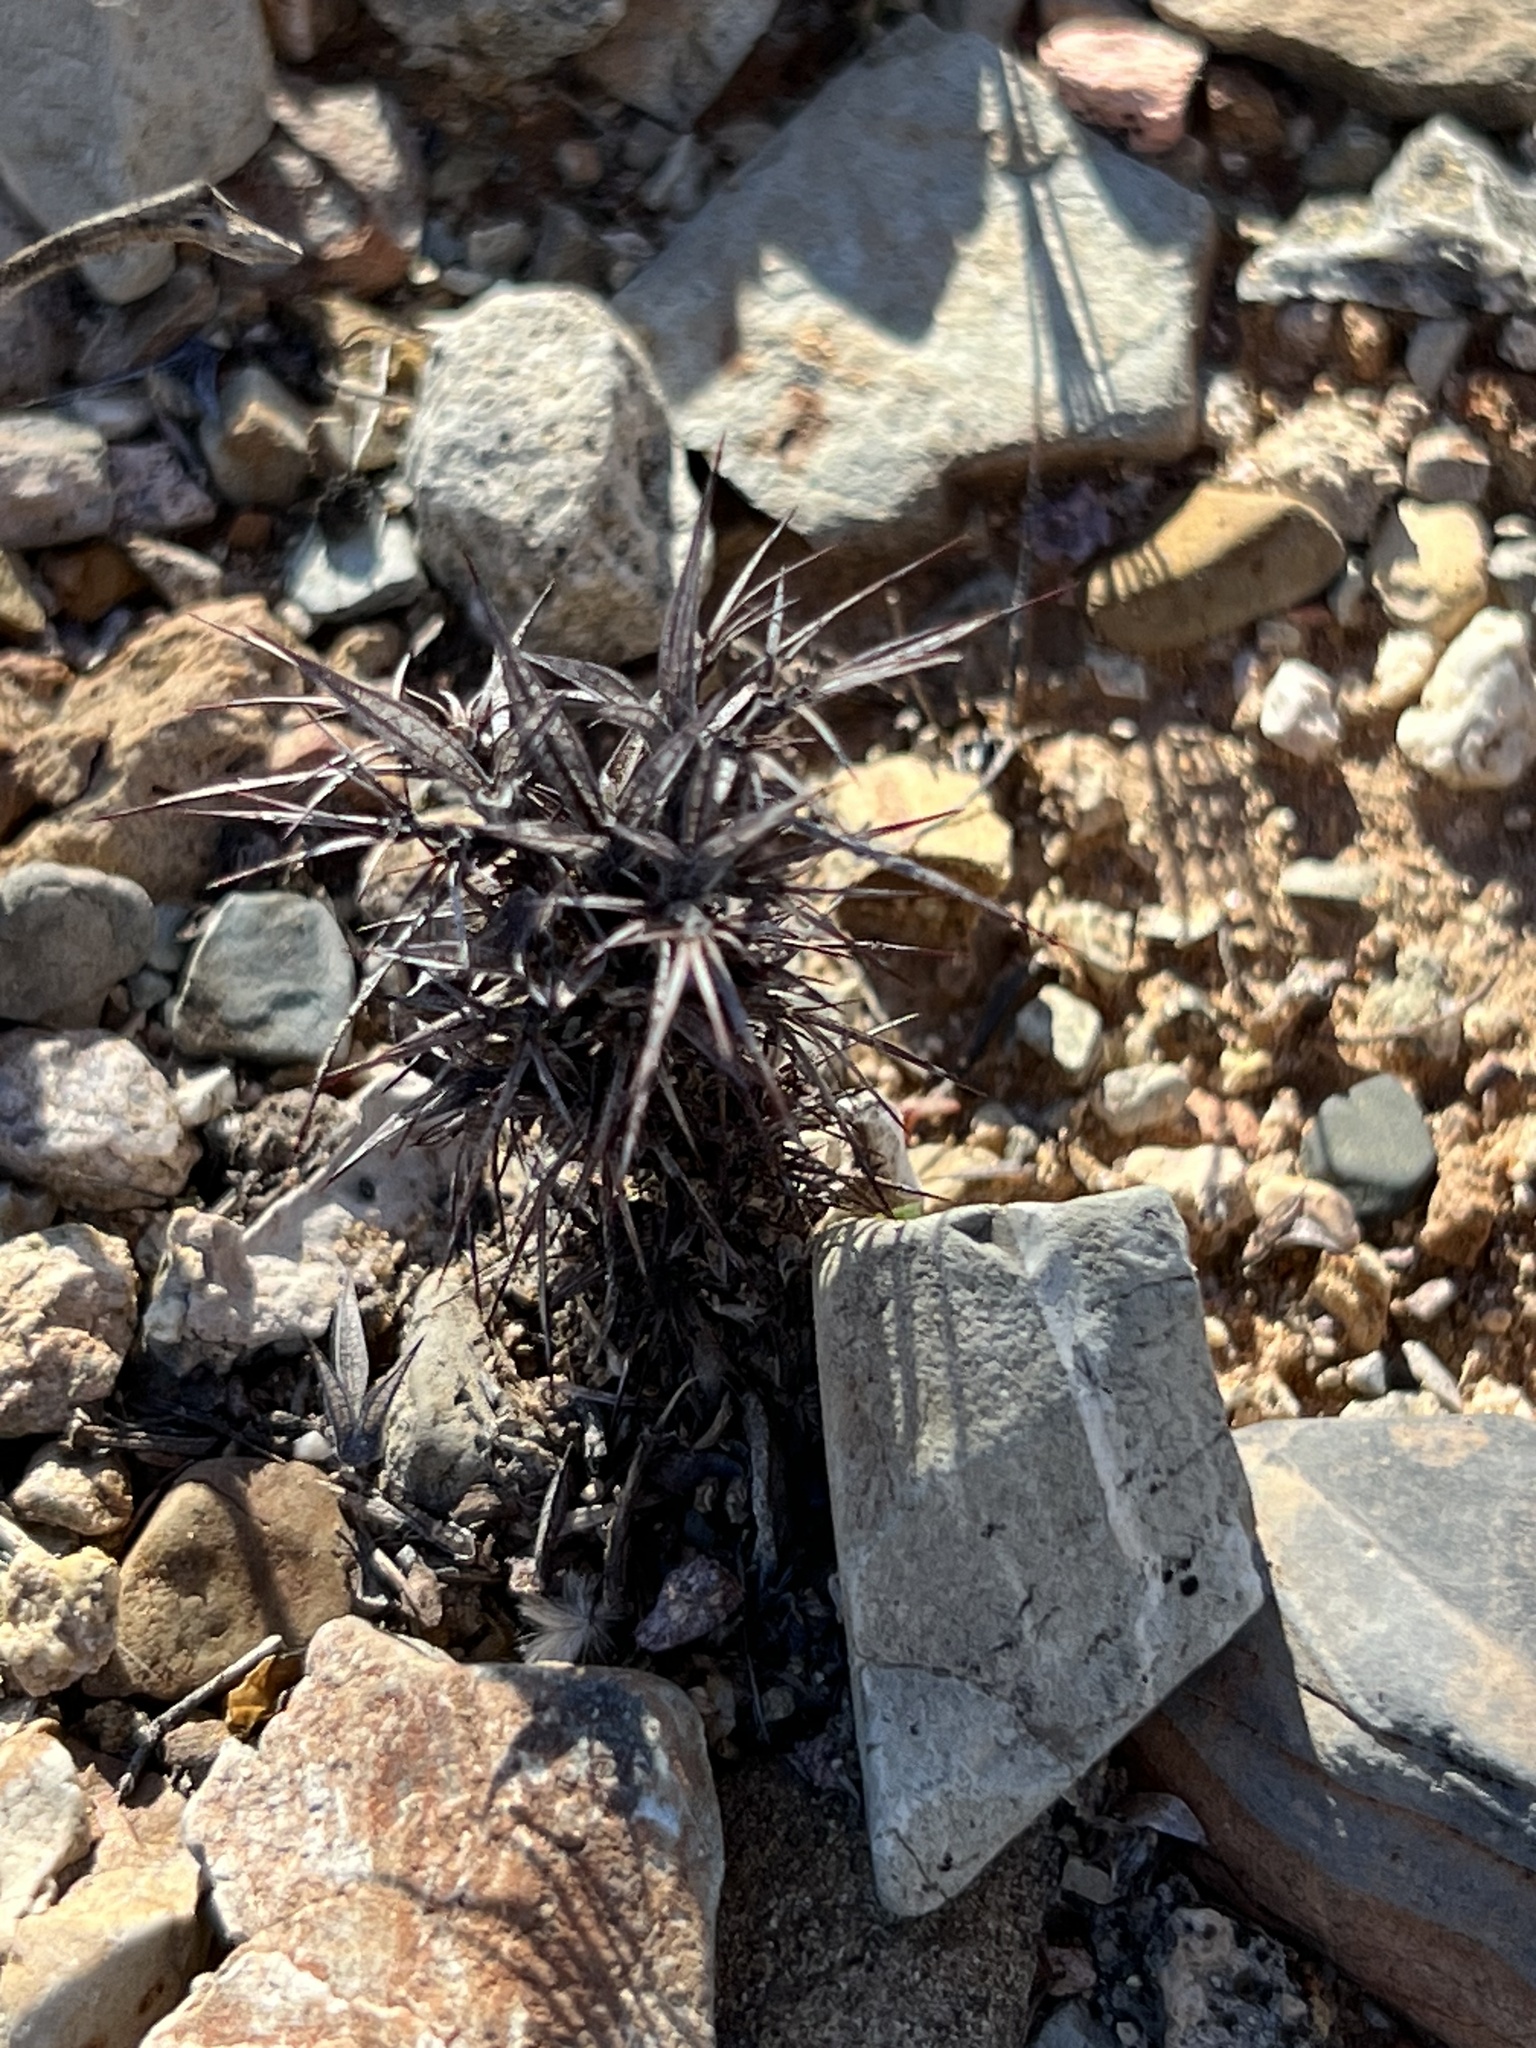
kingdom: Plantae
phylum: Tracheophyta
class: Magnoliopsida
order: Caryophyllales
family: Polygonaceae
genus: Chorizanthe
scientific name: Chorizanthe rigida
